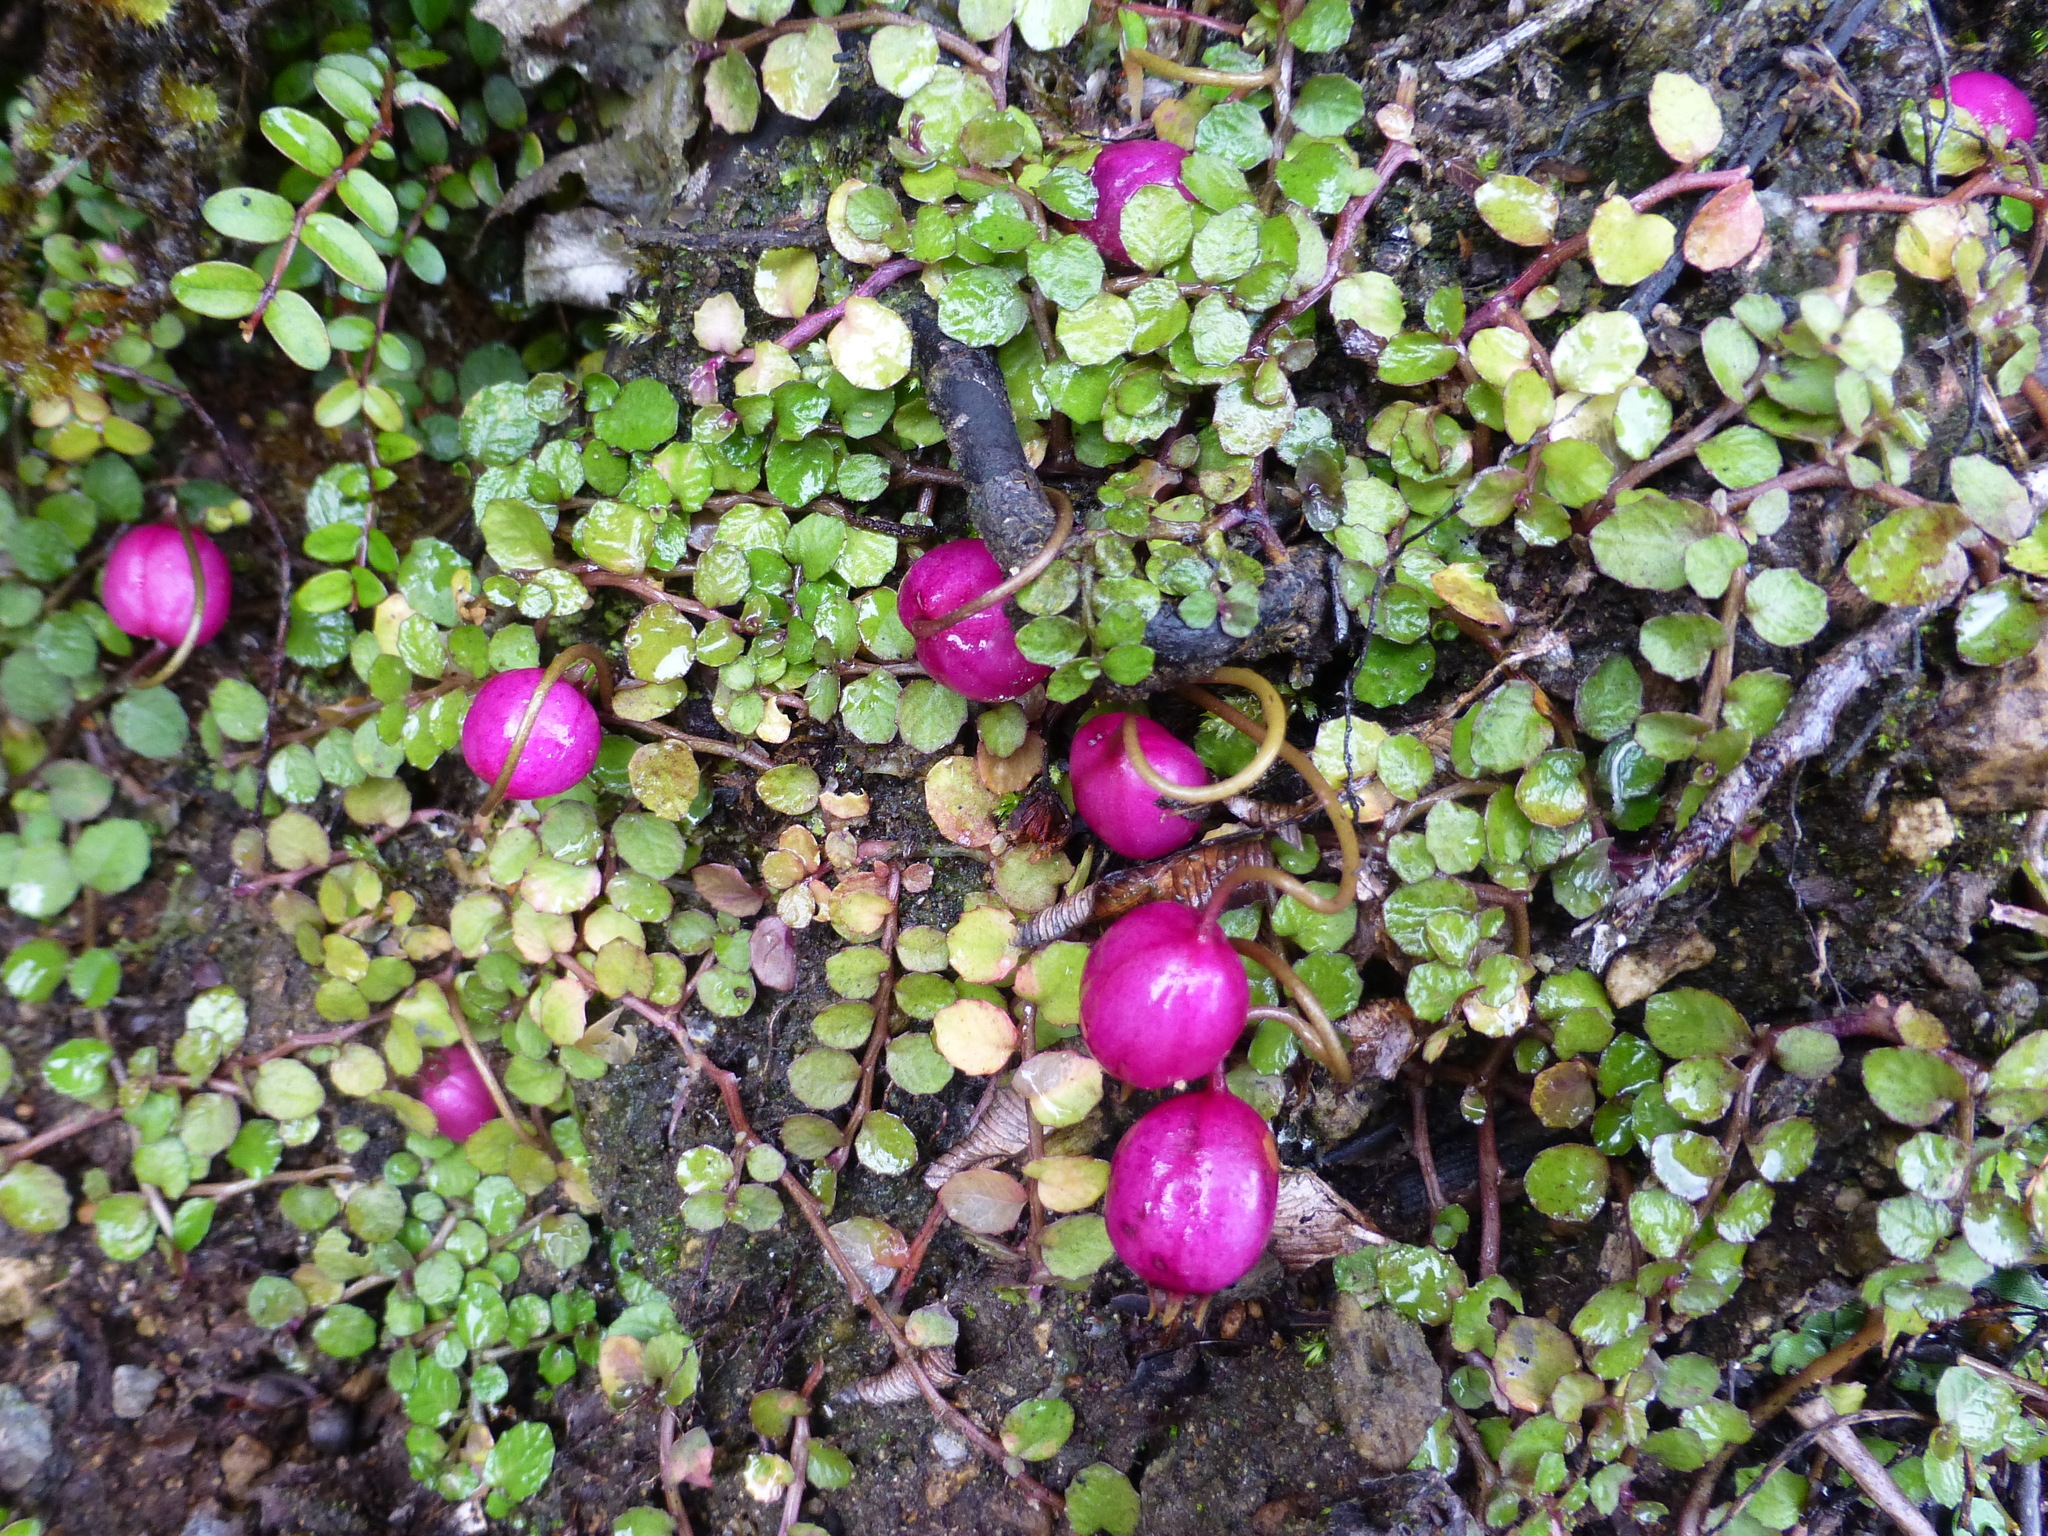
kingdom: Plantae
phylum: Tracheophyta
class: Magnoliopsida
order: Asterales
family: Campanulaceae
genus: Lobelia
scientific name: Lobelia angulata
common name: Lawn lobelia
